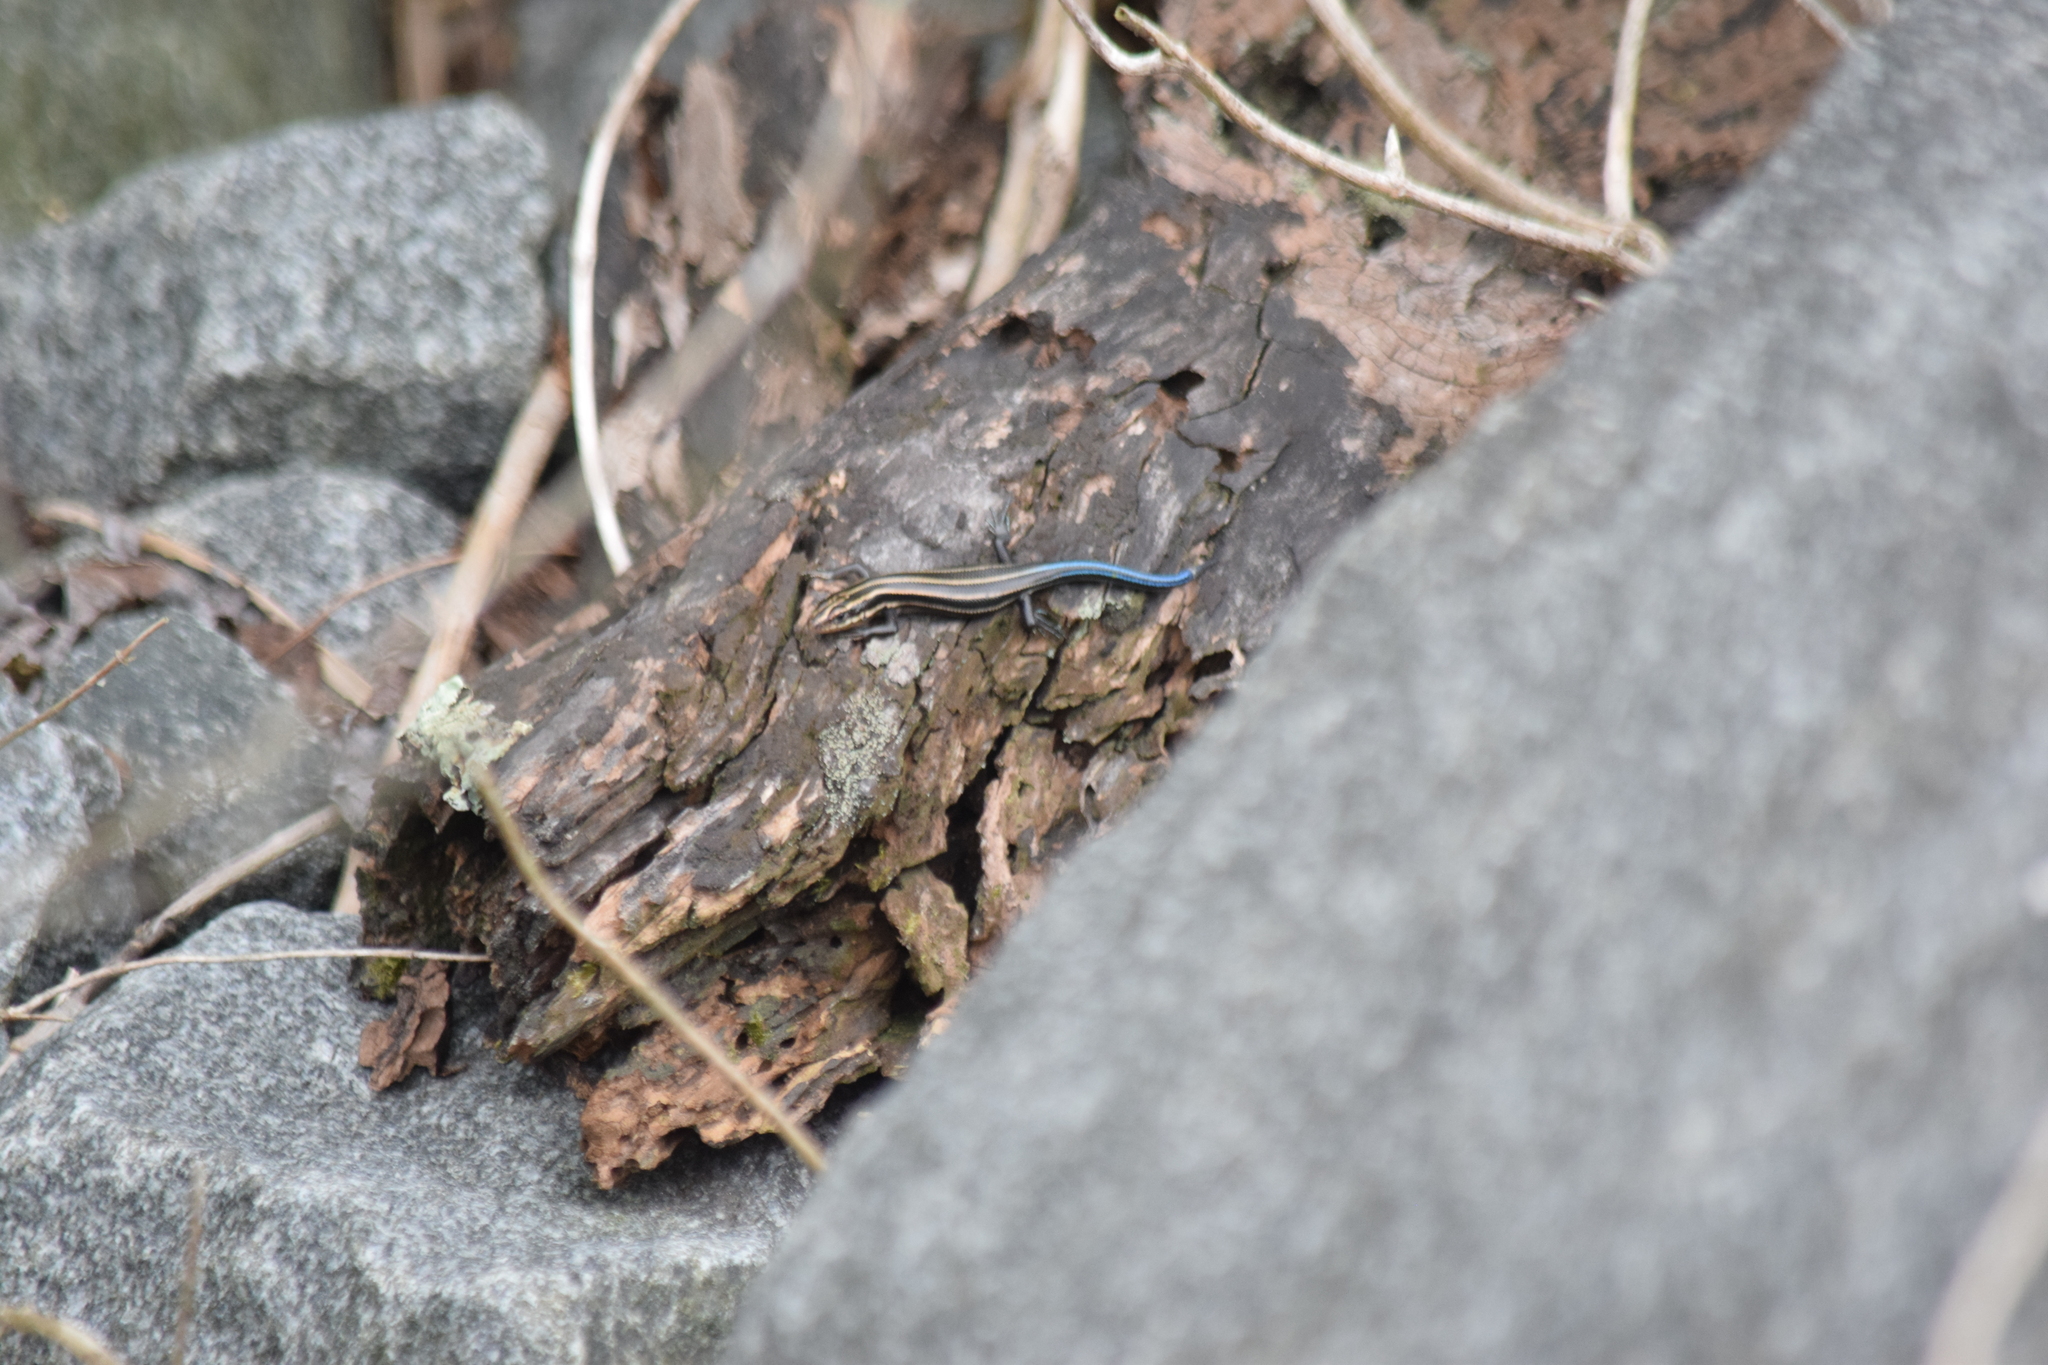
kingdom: Animalia
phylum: Chordata
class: Squamata
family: Scincidae
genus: Plestiodon
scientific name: Plestiodon fasciatus
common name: Five-lined skink
